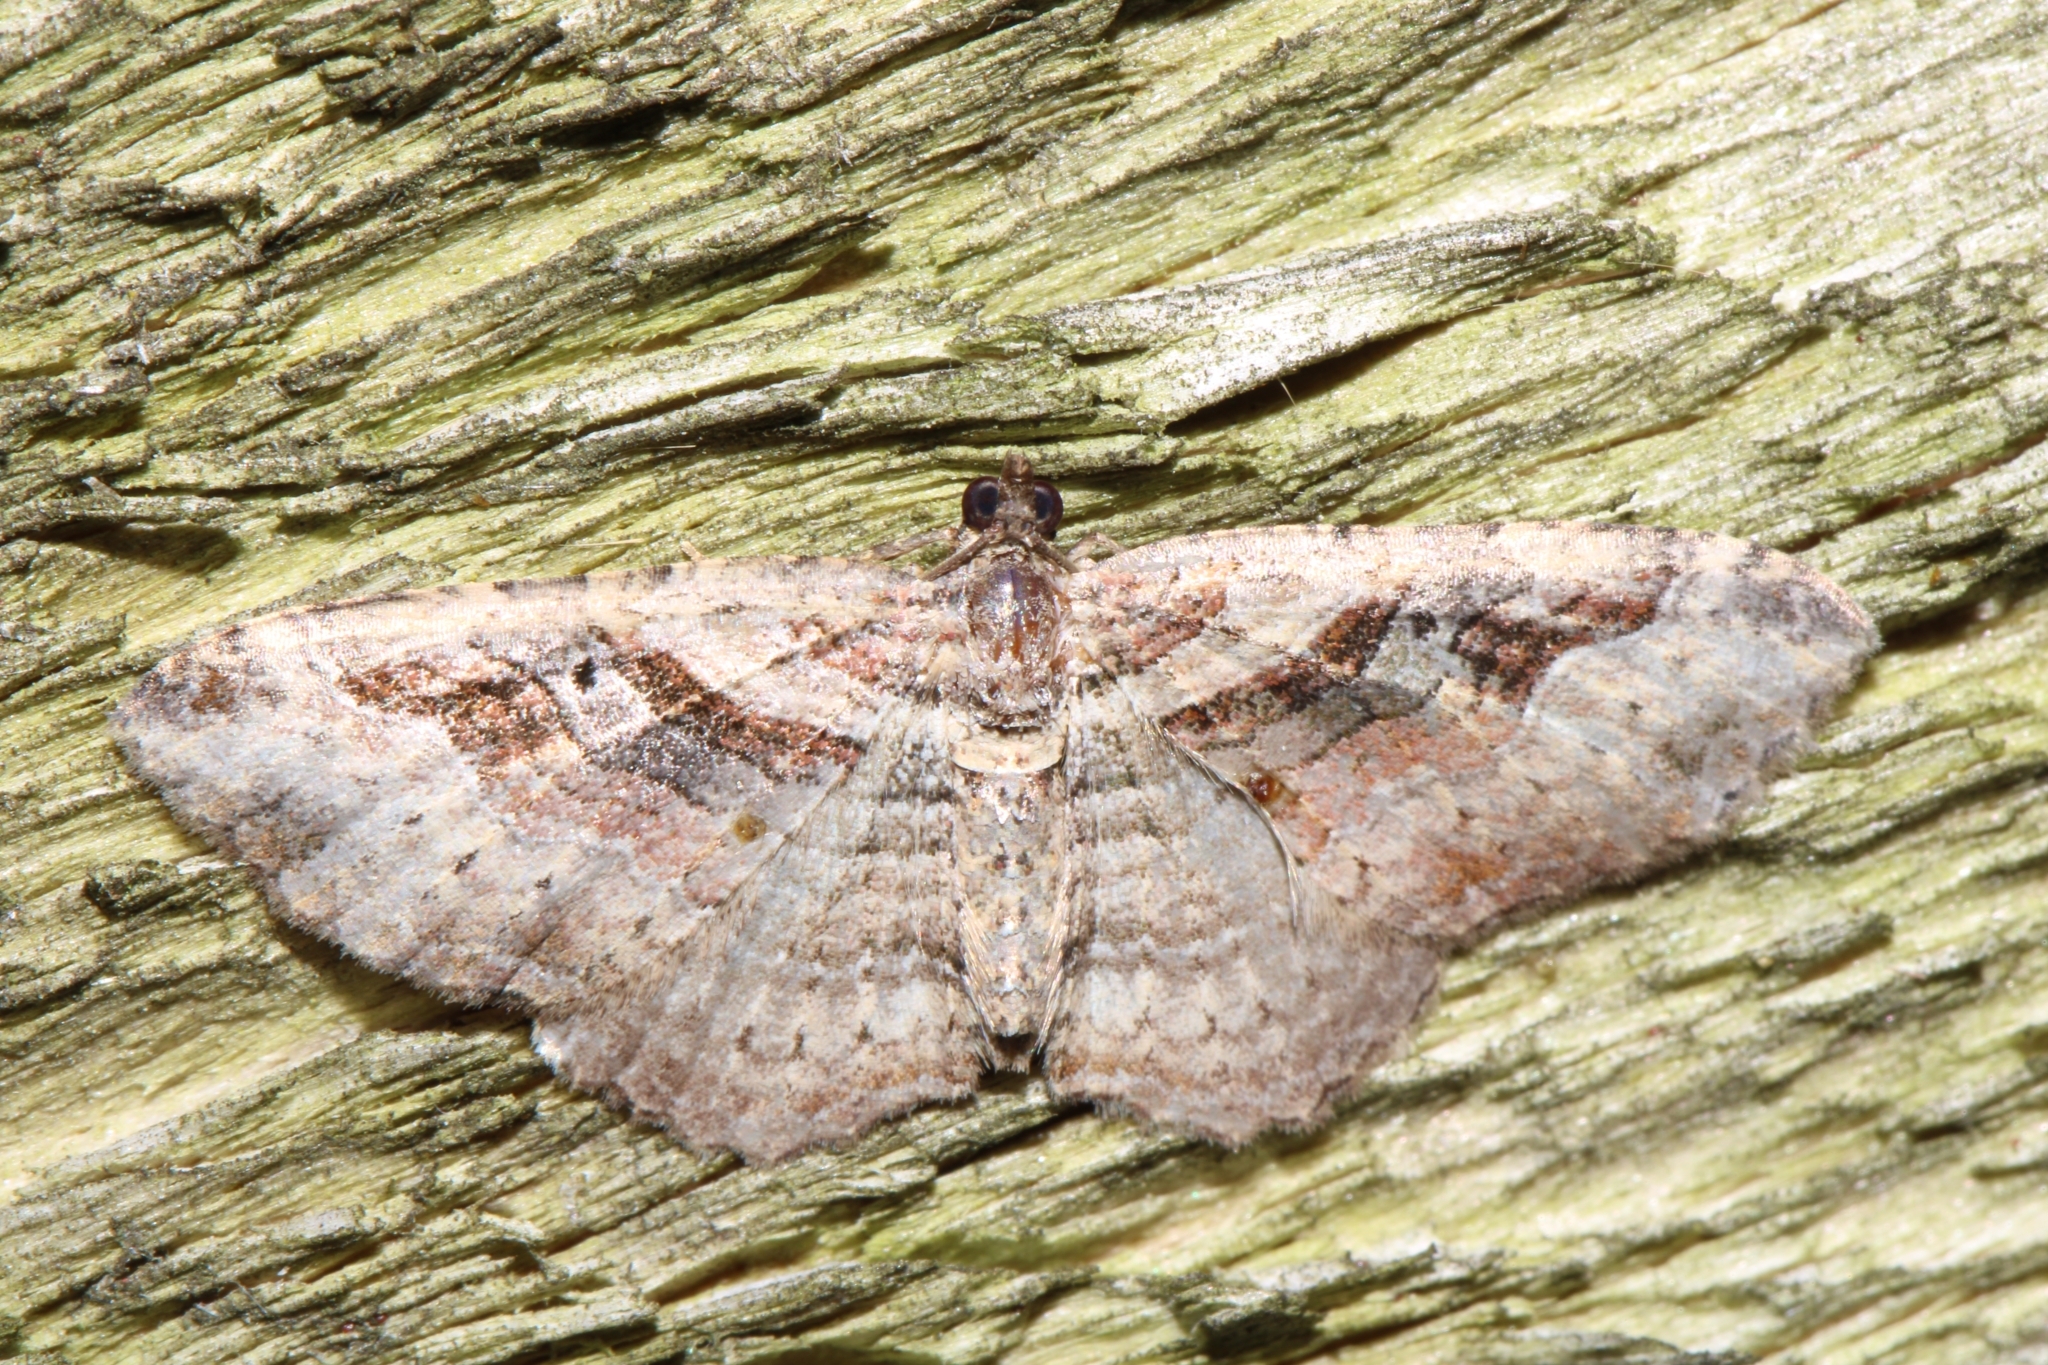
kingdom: Animalia
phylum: Arthropoda
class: Insecta
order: Lepidoptera
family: Geometridae
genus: Costaconvexa
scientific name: Costaconvexa centrostrigaria
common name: Bent-line carpet
